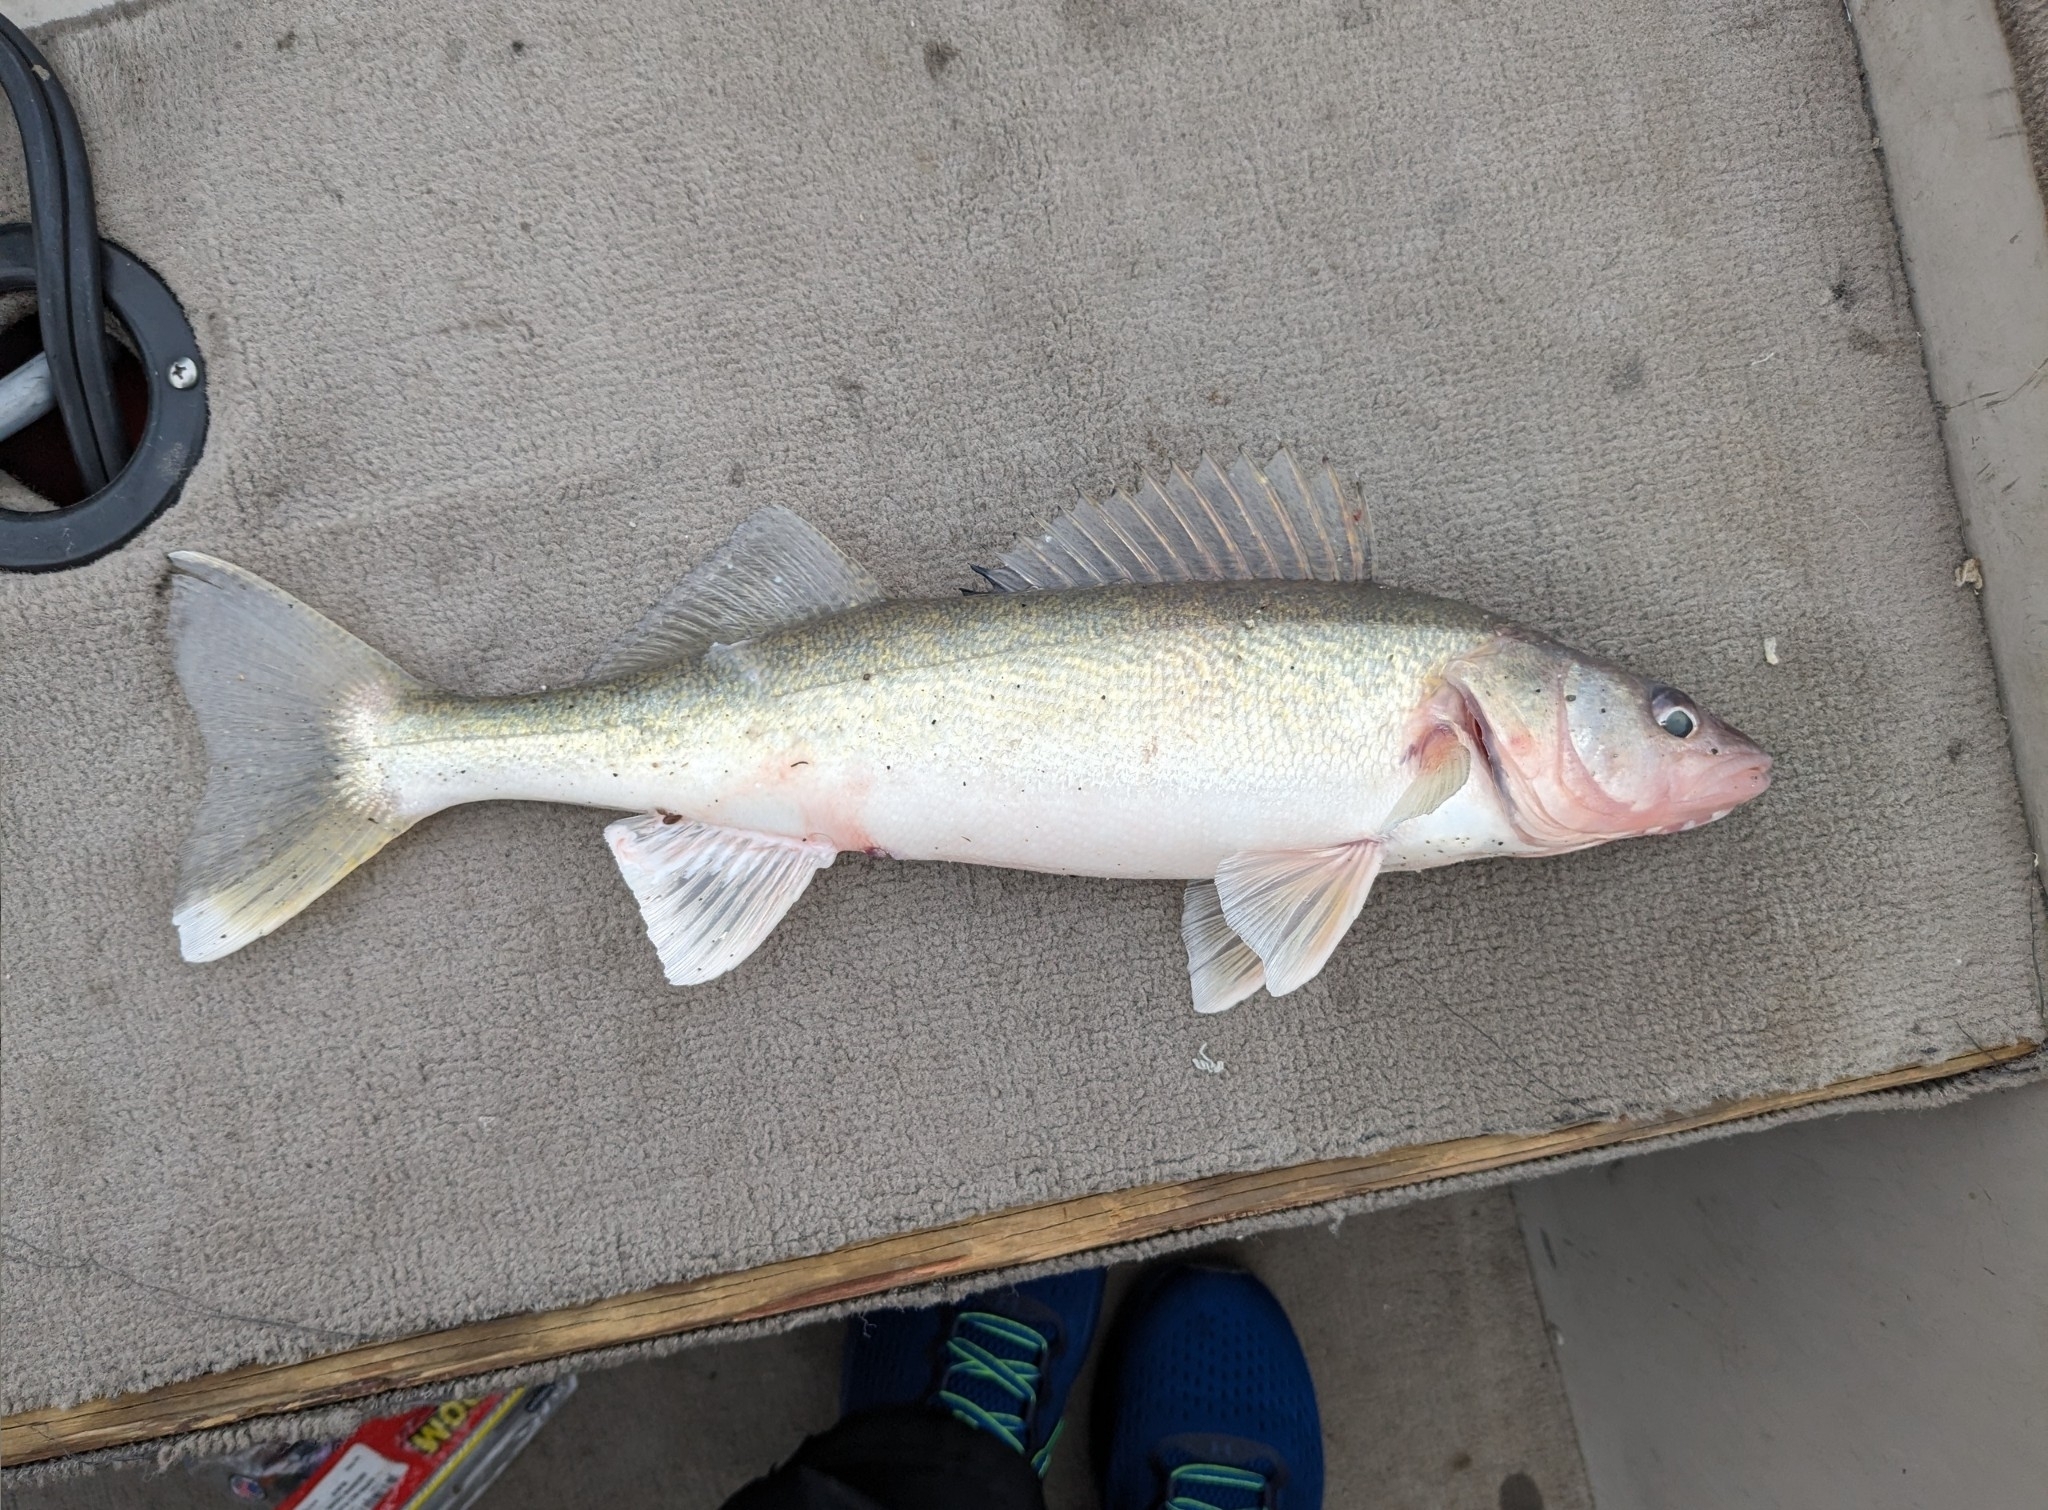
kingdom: Animalia
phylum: Chordata
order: Perciformes
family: Percidae
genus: Sander
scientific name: Sander vitreus
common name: Walleye
